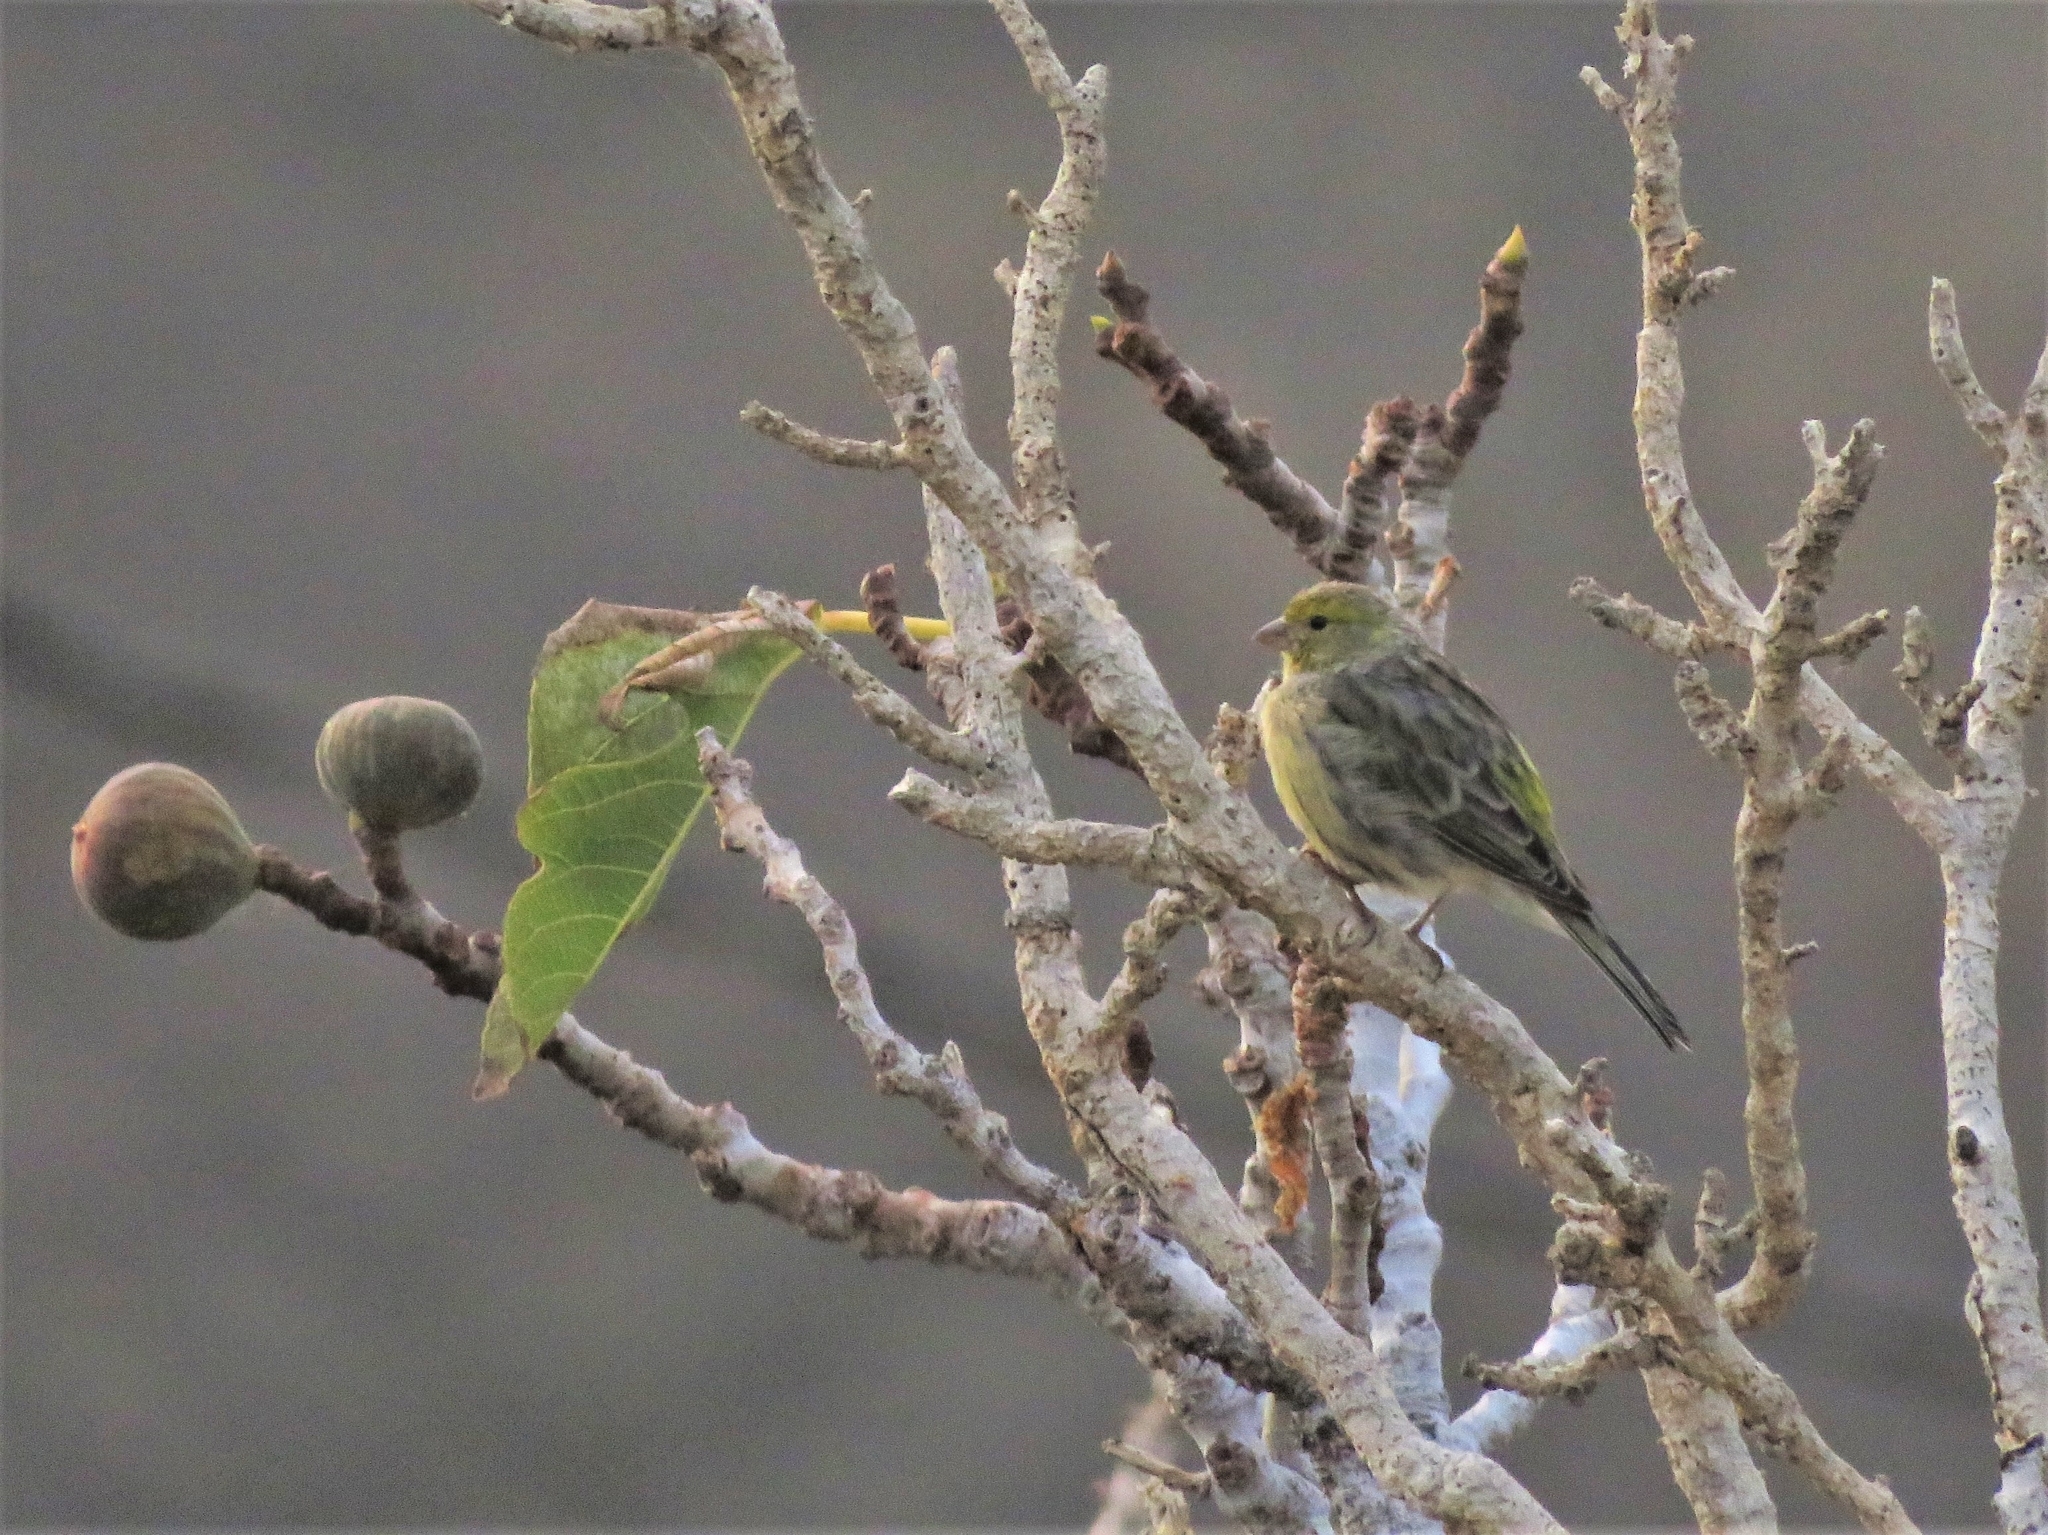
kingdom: Animalia
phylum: Chordata
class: Aves
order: Passeriformes
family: Fringillidae
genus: Serinus
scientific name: Serinus canaria
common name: Atlantic canary
